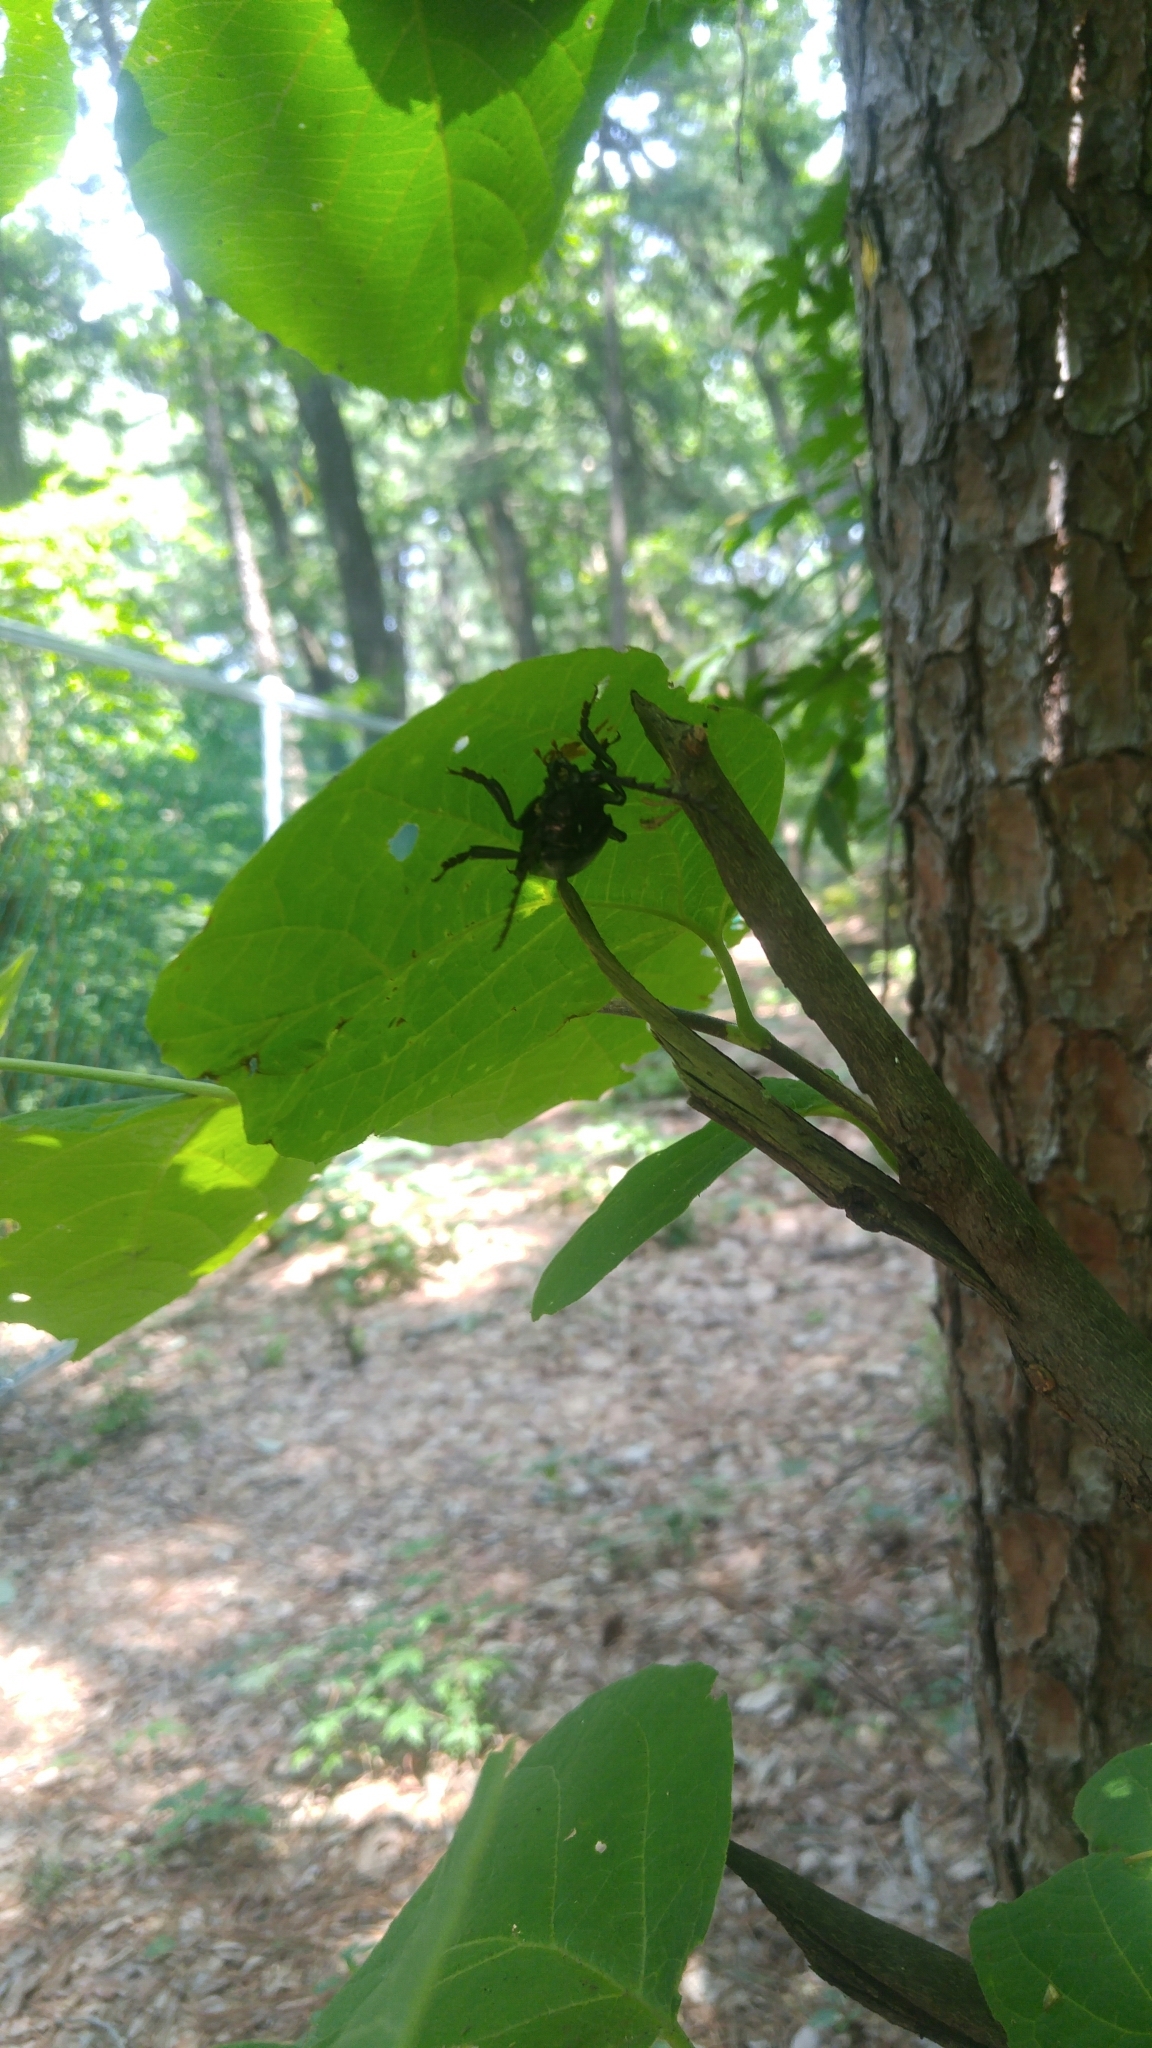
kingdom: Animalia
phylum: Arthropoda
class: Insecta
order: Coleoptera
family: Cerambycidae
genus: Prionus
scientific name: Prionus insularis
